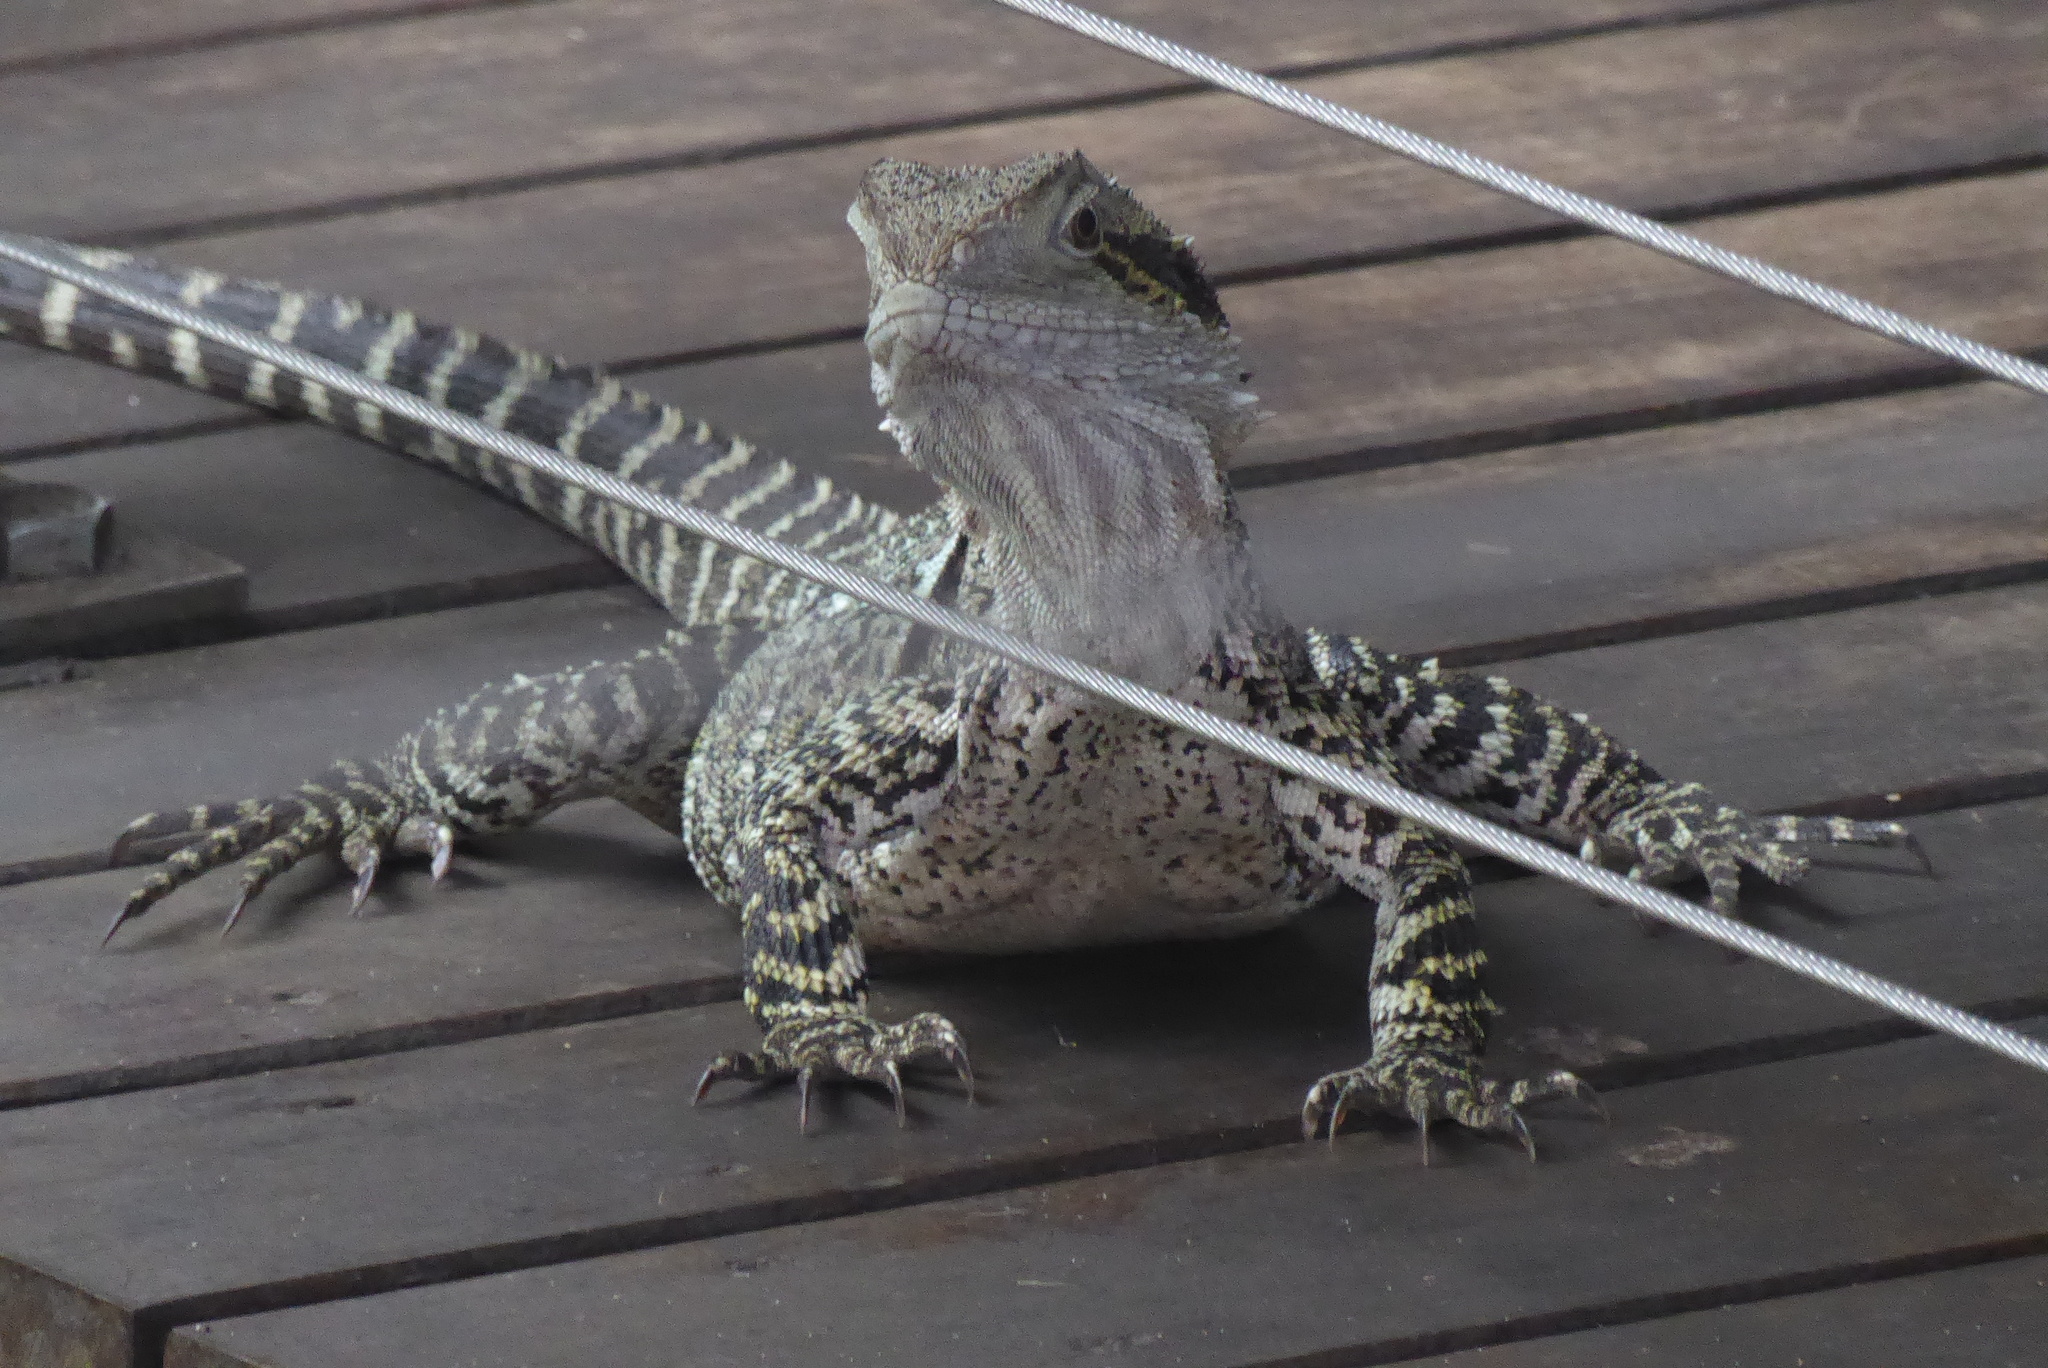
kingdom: Animalia
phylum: Chordata
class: Squamata
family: Agamidae
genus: Intellagama
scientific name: Intellagama lesueurii
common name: Eastern water dragon
